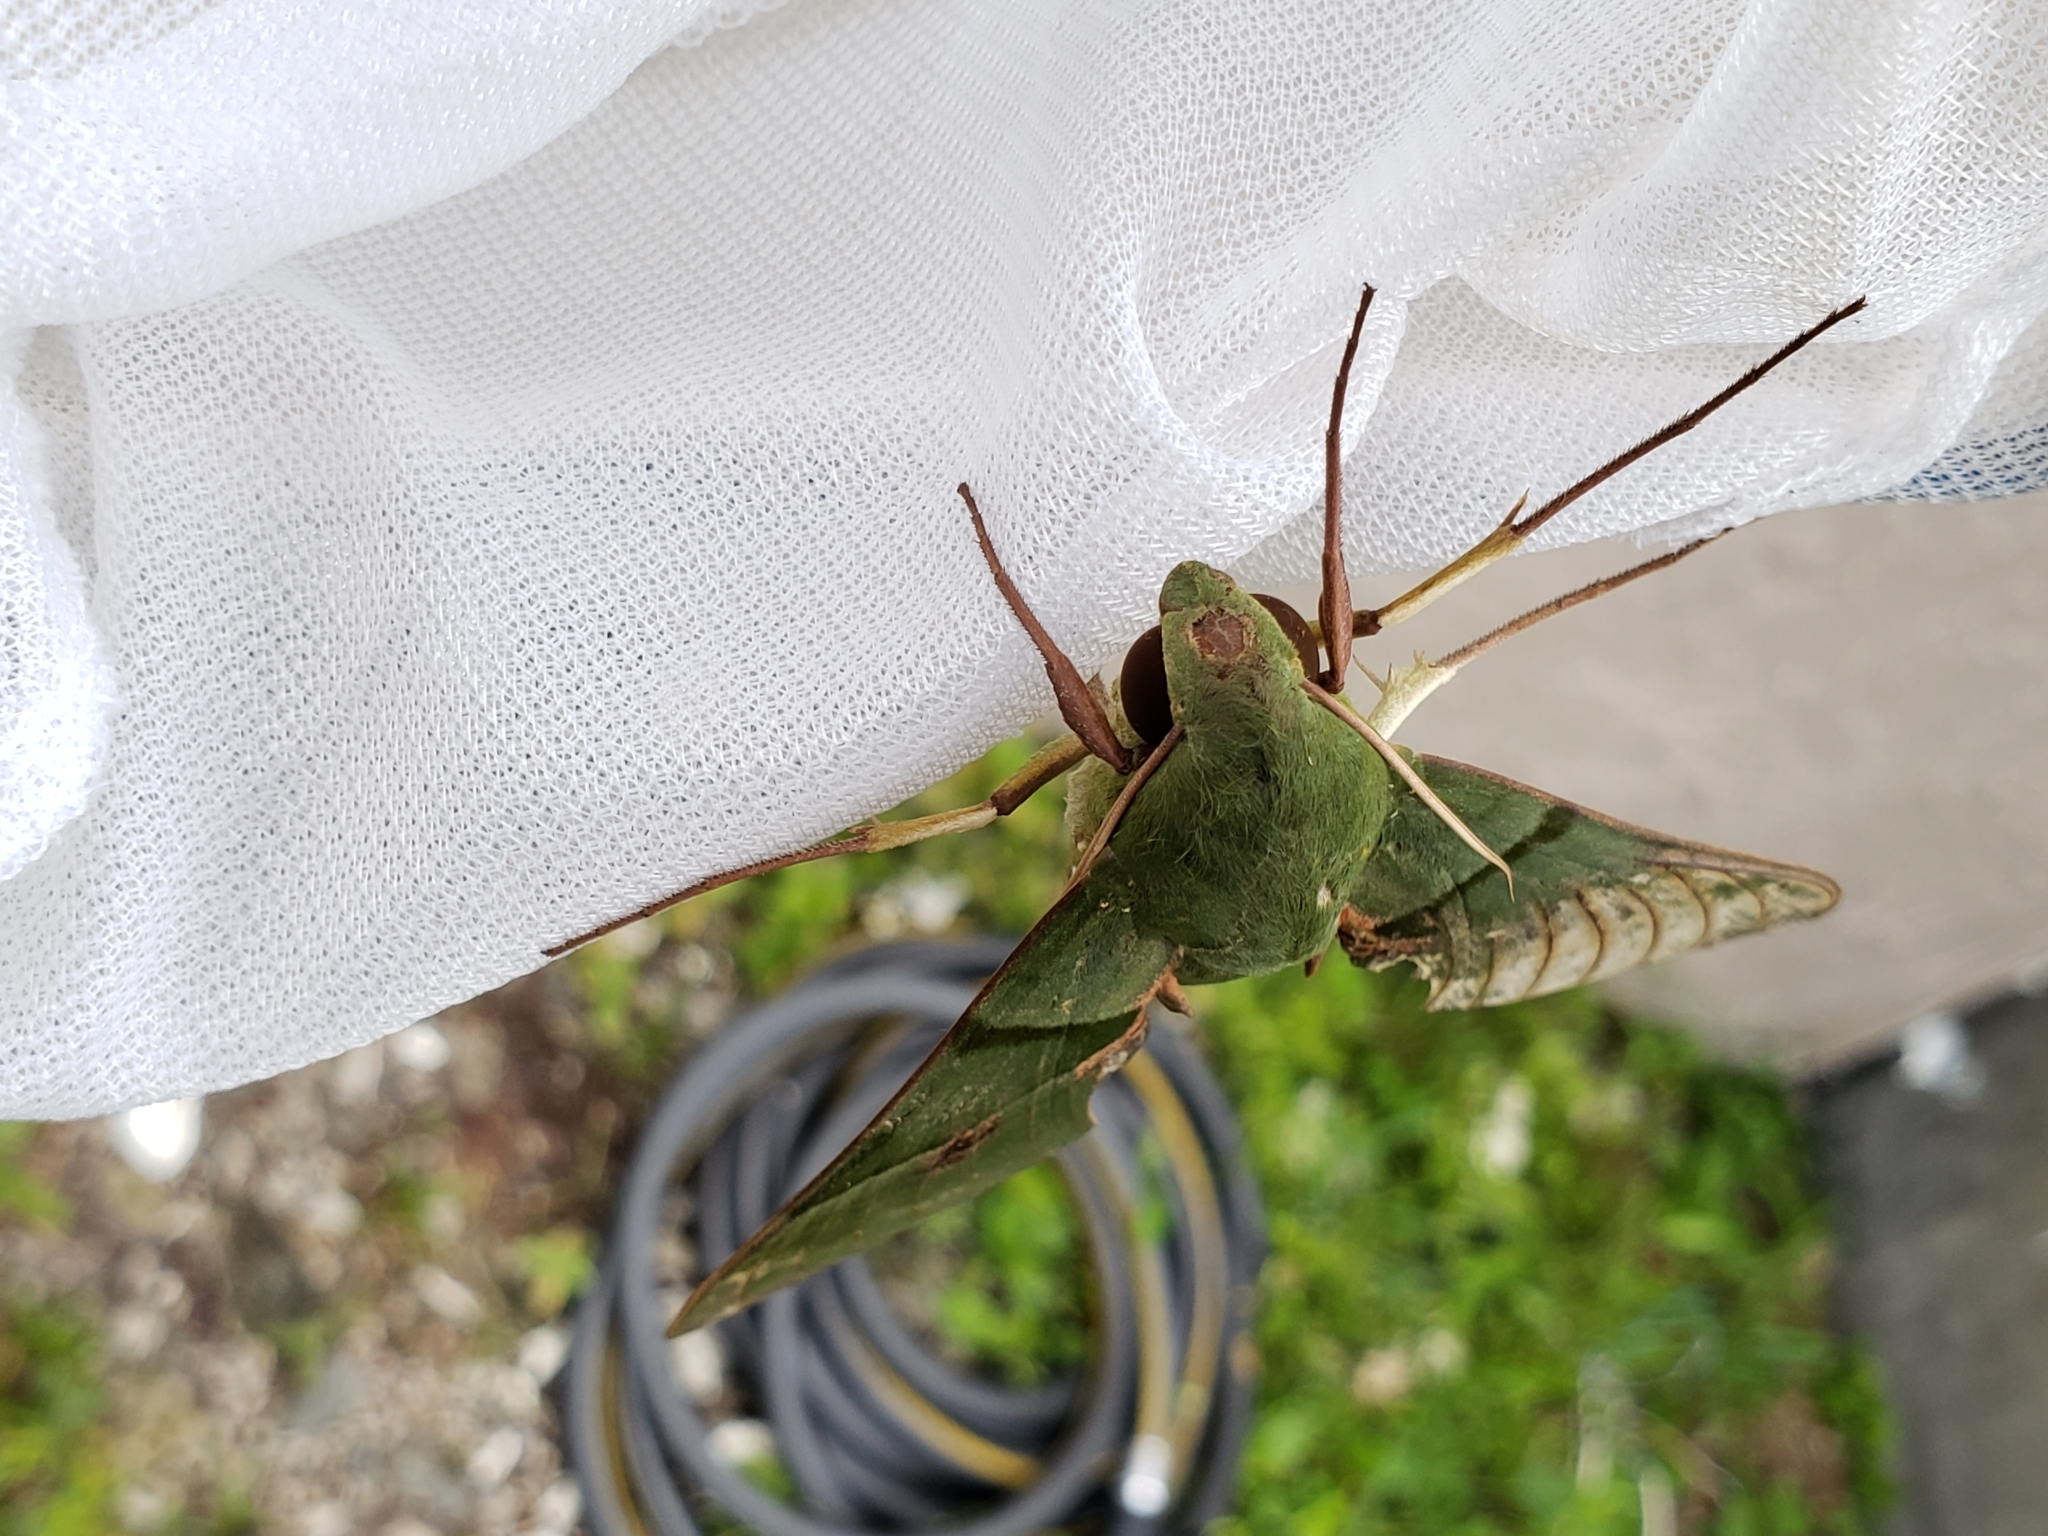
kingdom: Animalia
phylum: Arthropoda
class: Insecta
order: Lepidoptera
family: Sphingidae
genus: Eumorpha
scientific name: Eumorpha labruscae
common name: Gaudy sphinx
